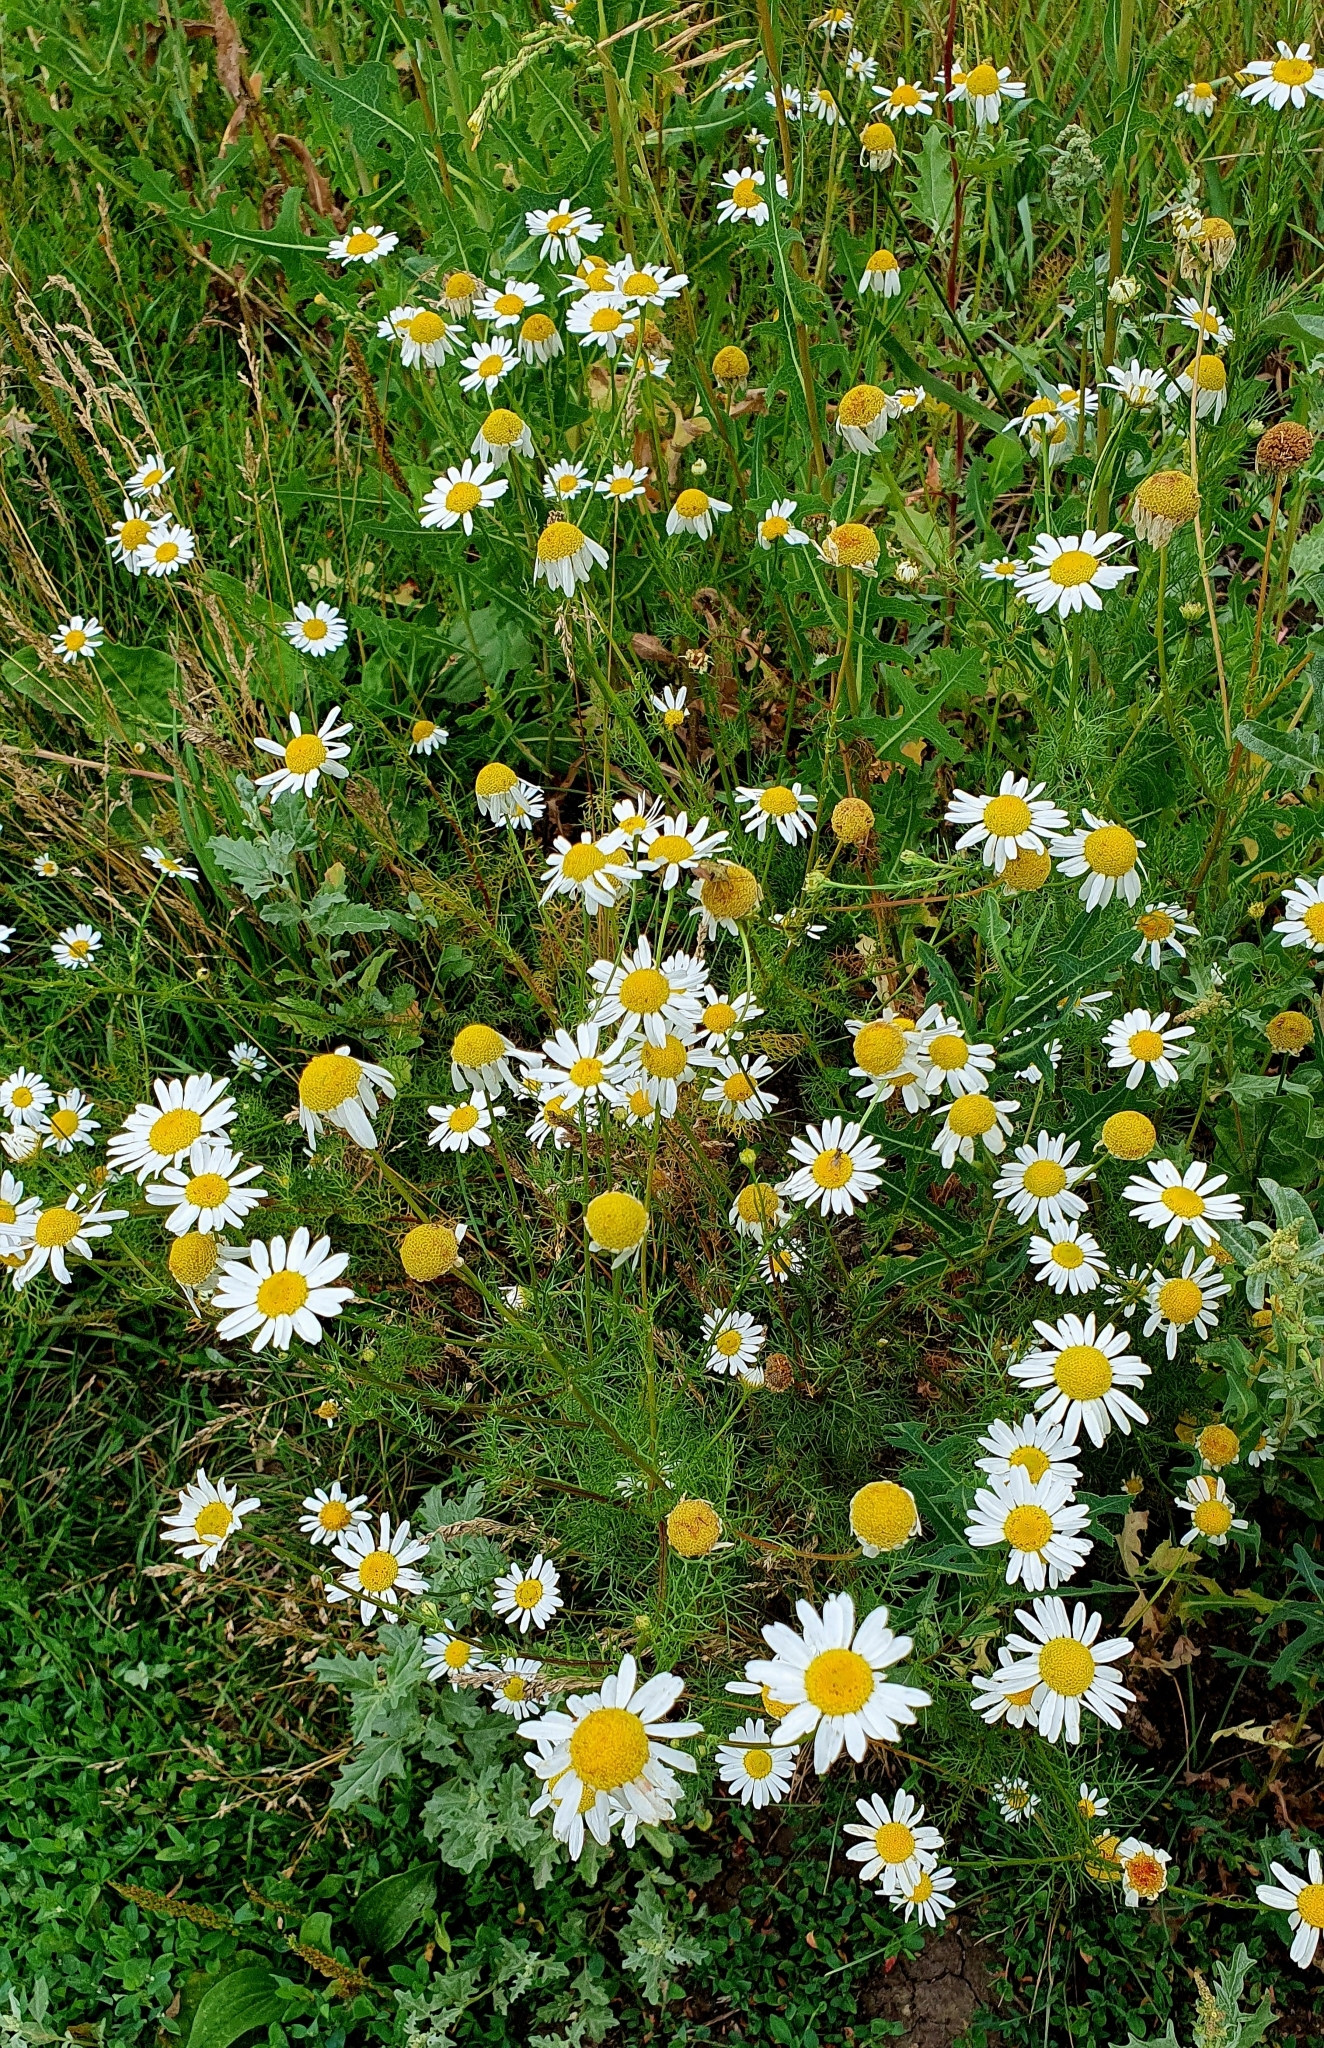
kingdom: Plantae
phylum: Tracheophyta
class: Magnoliopsida
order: Asterales
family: Asteraceae
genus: Tripleurospermum
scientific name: Tripleurospermum inodorum
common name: Scentless mayweed
